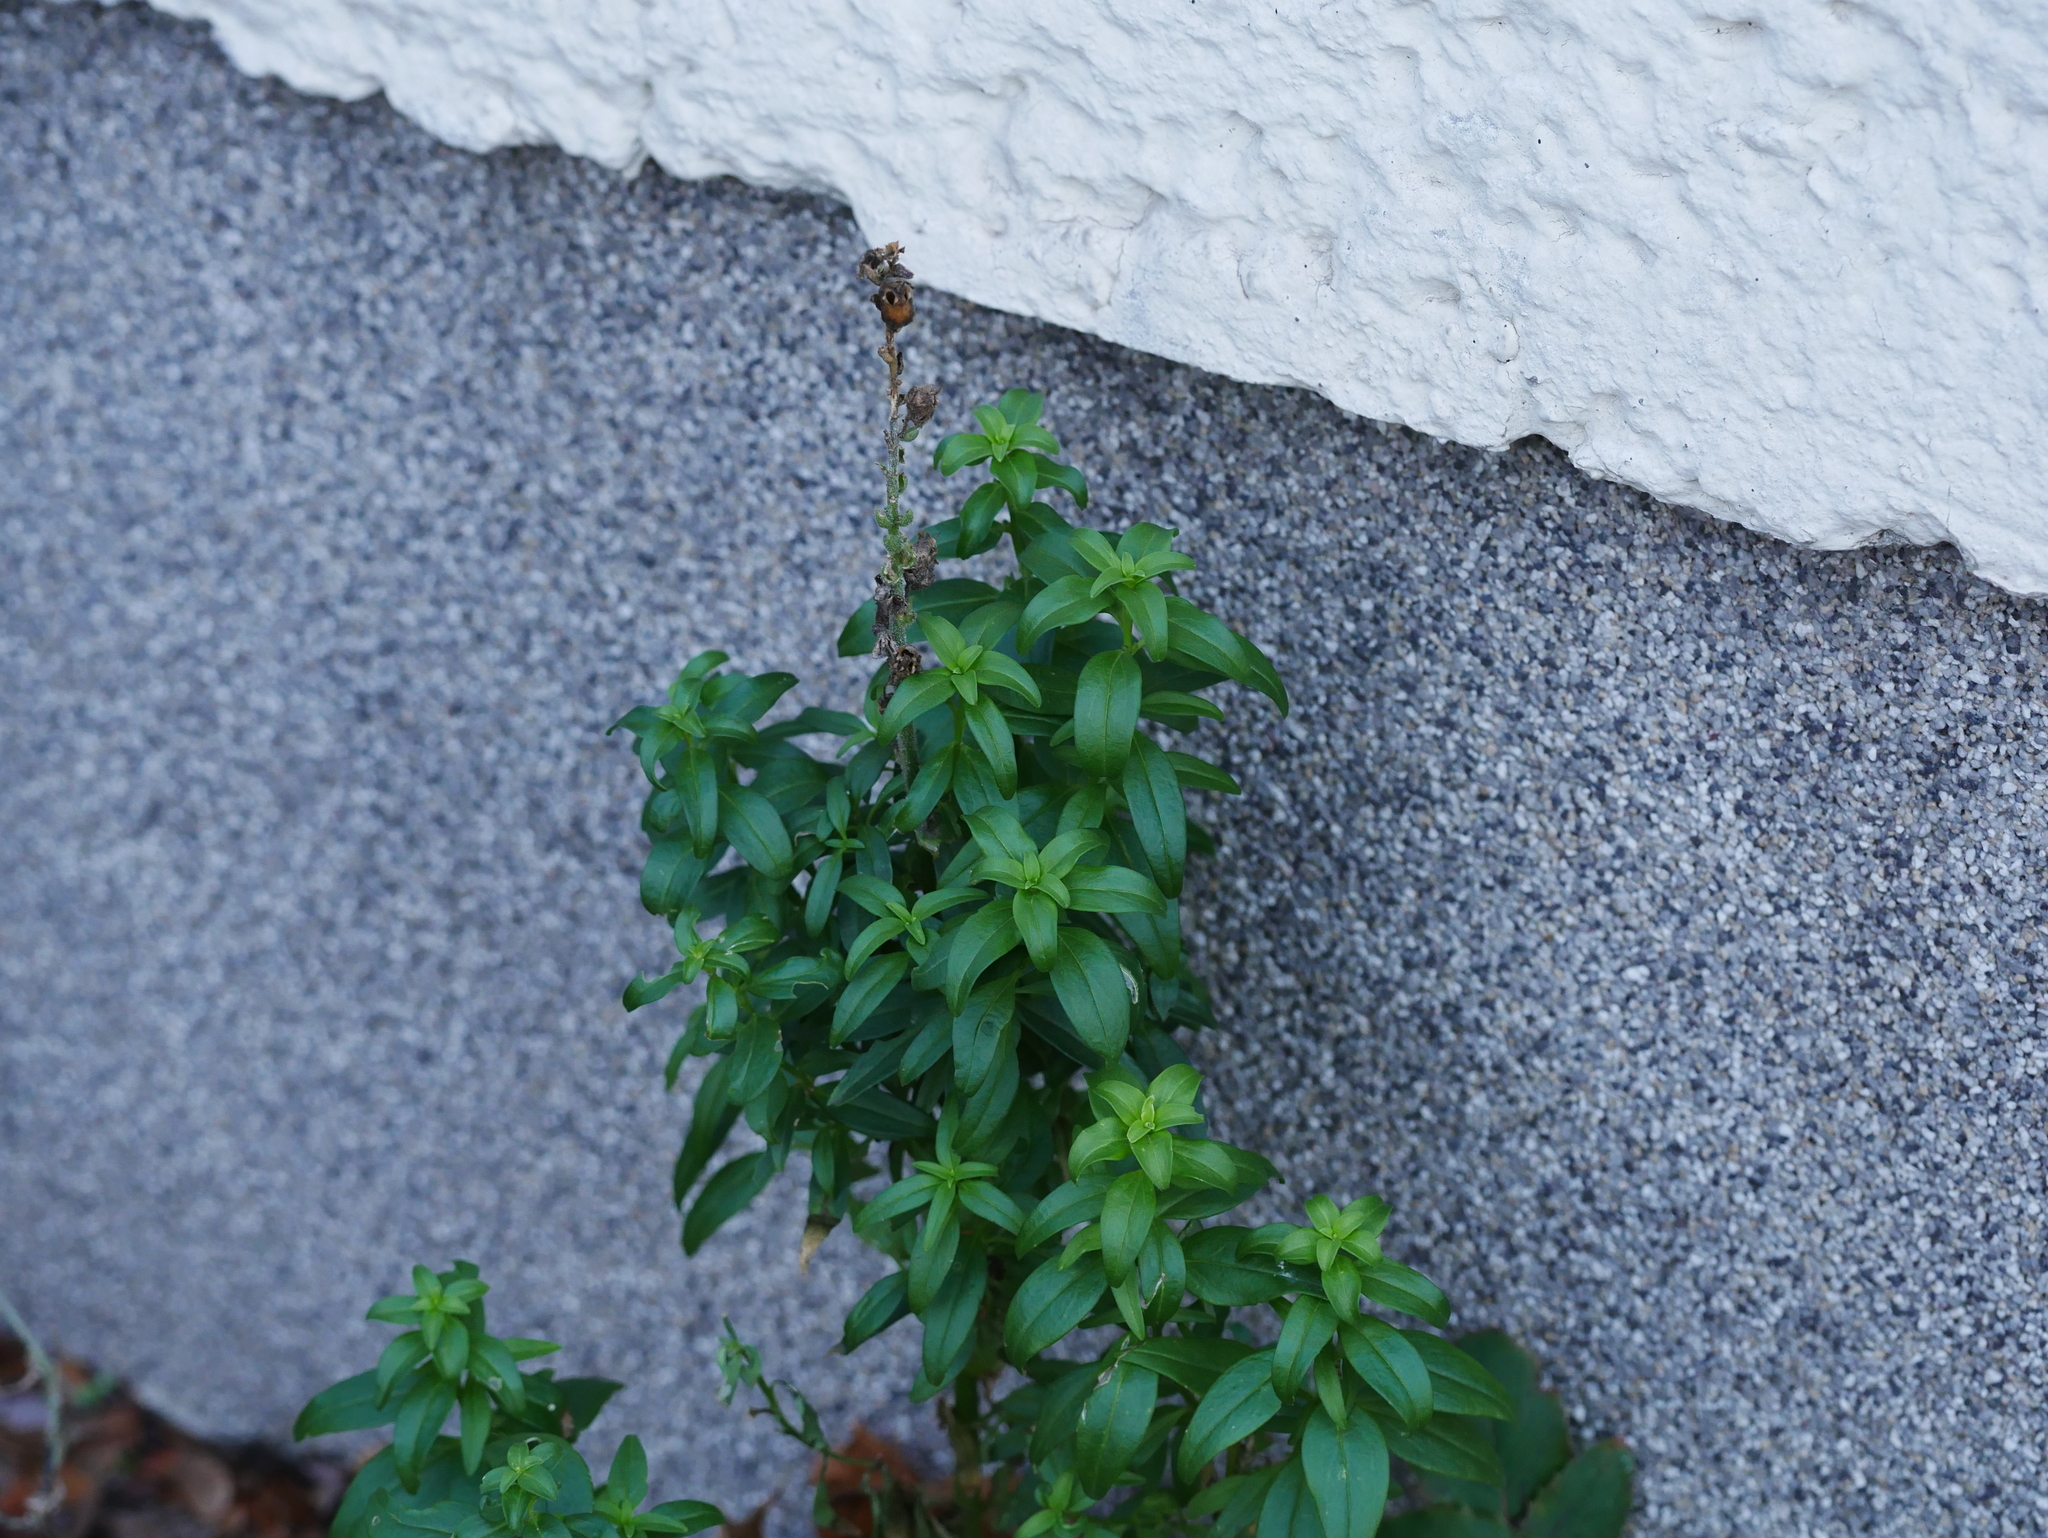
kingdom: Plantae
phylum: Tracheophyta
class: Magnoliopsida
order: Lamiales
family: Plantaginaceae
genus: Antirrhinum
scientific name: Antirrhinum majus
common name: Snapdragon
